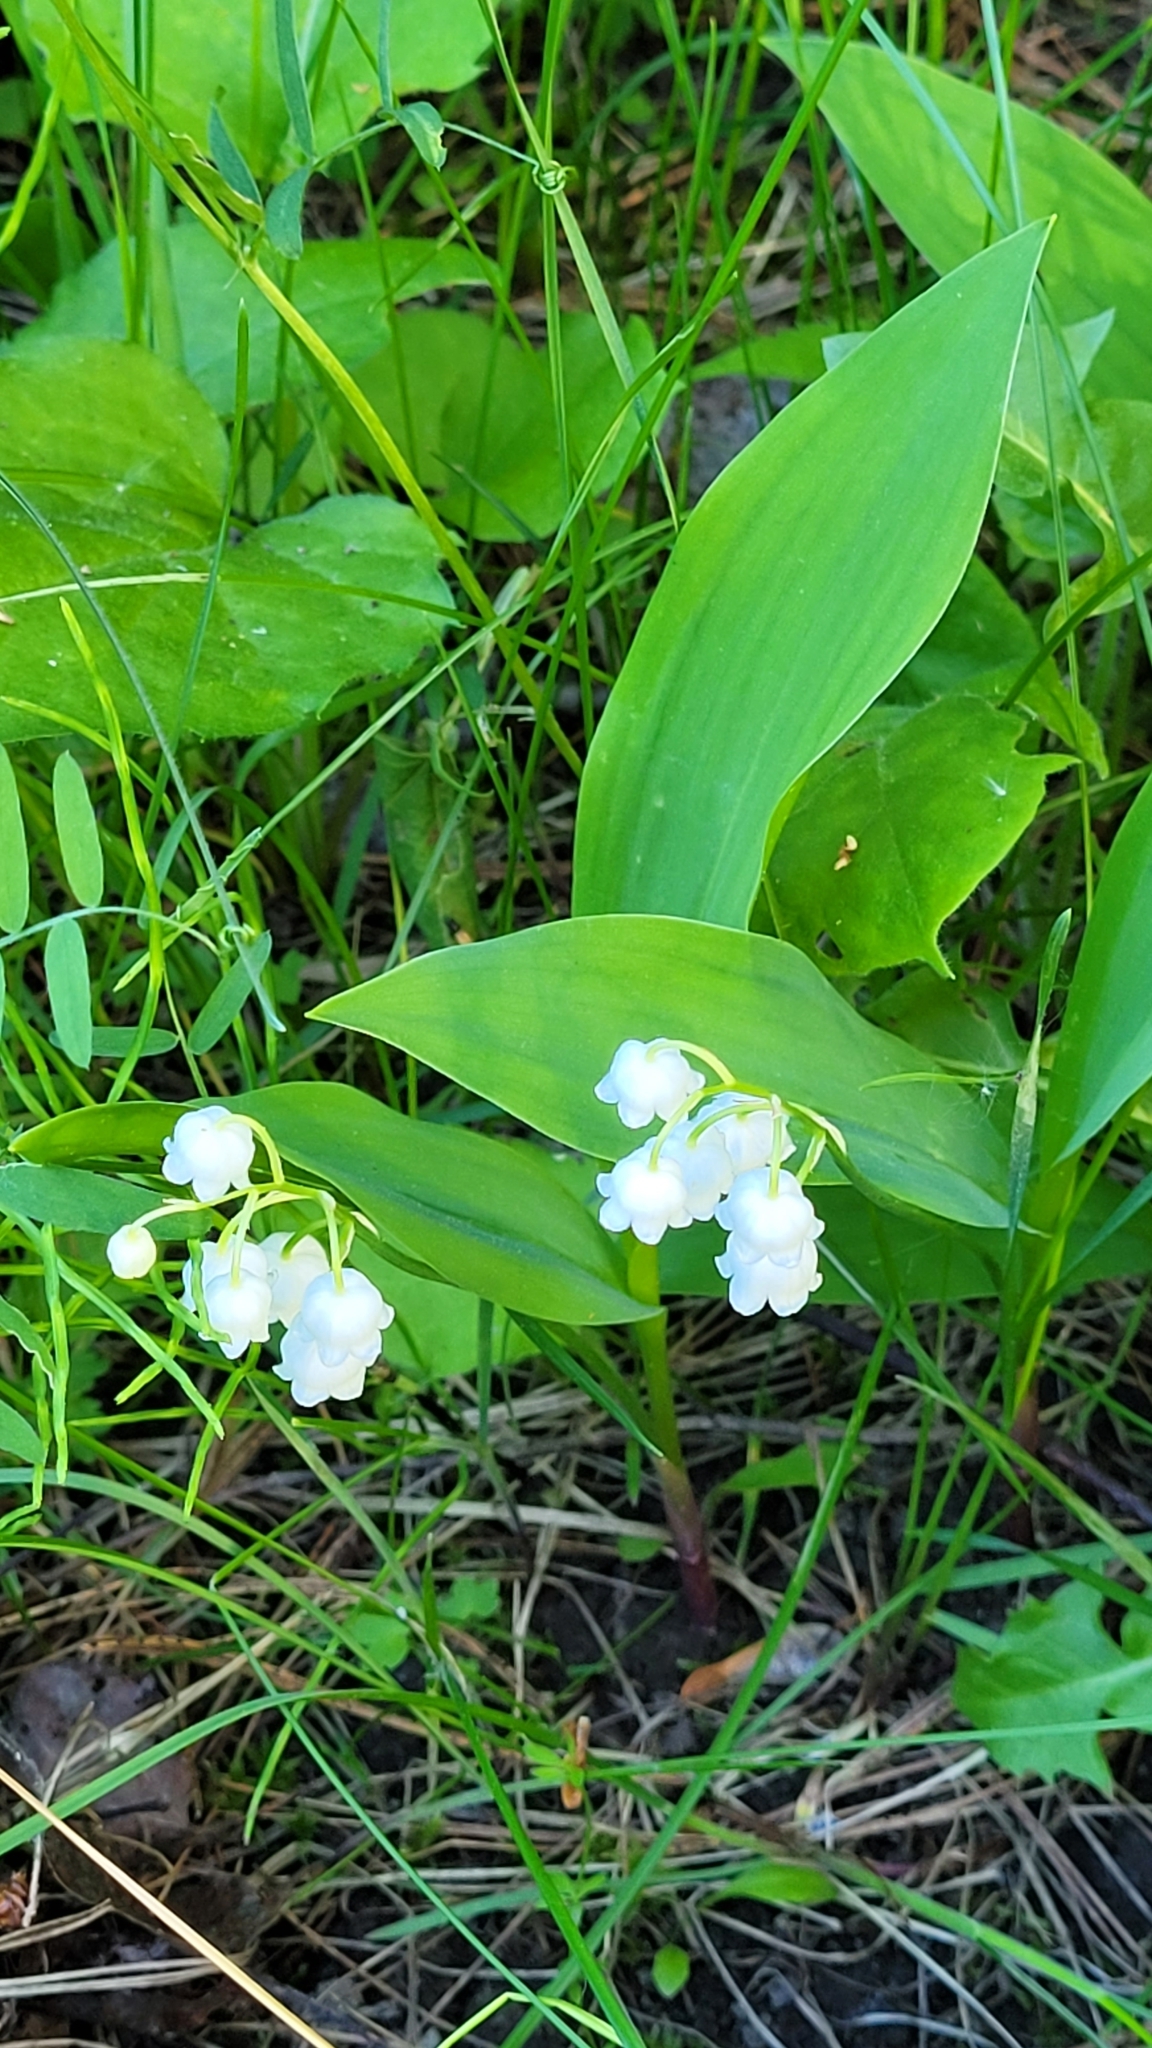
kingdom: Plantae
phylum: Tracheophyta
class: Liliopsida
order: Asparagales
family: Asparagaceae
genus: Convallaria
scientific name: Convallaria majalis
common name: Lily-of-the-valley
